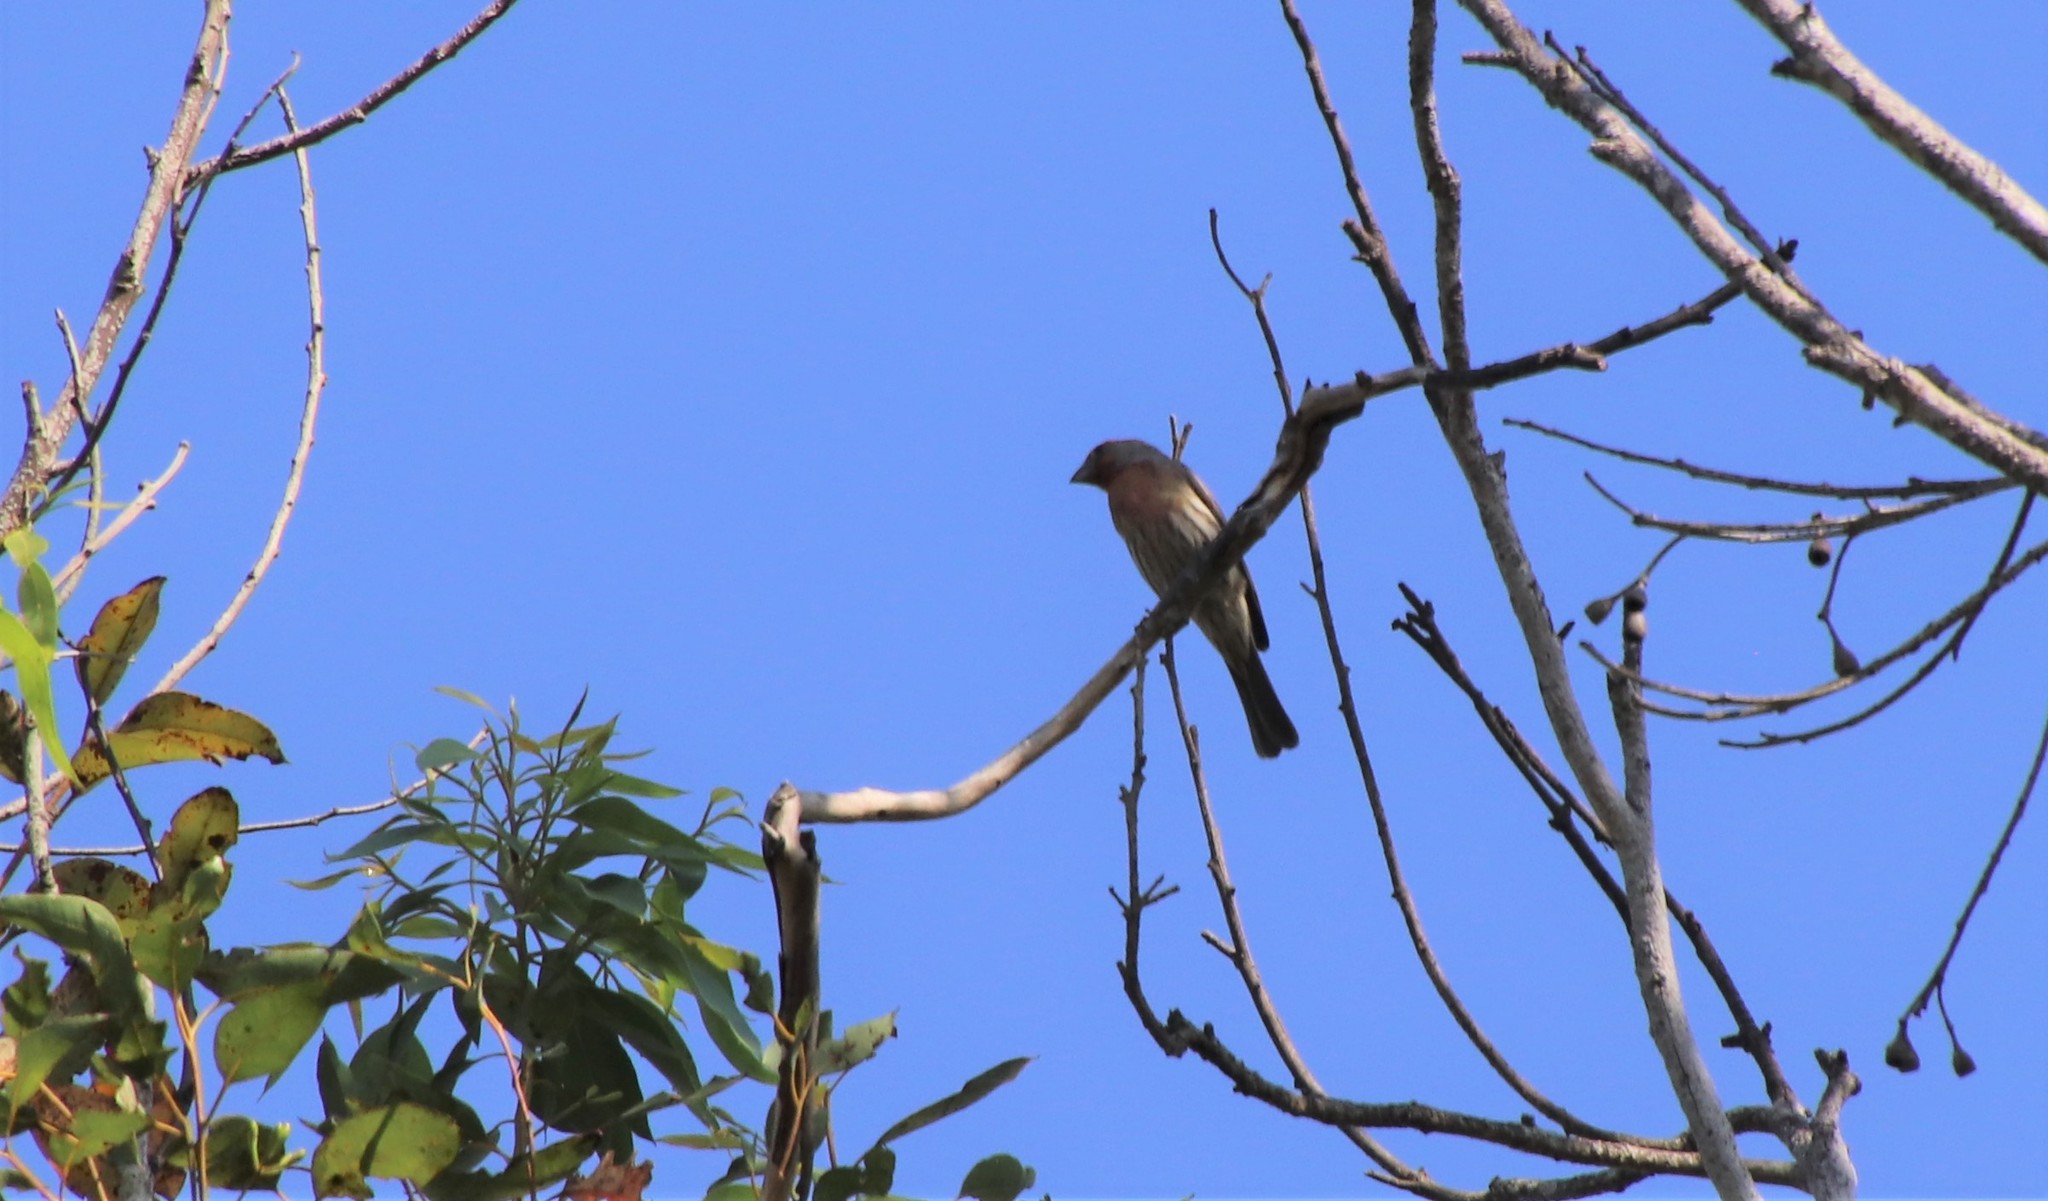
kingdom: Animalia
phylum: Chordata
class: Aves
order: Passeriformes
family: Fringillidae
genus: Haemorhous
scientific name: Haemorhous mexicanus
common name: House finch
